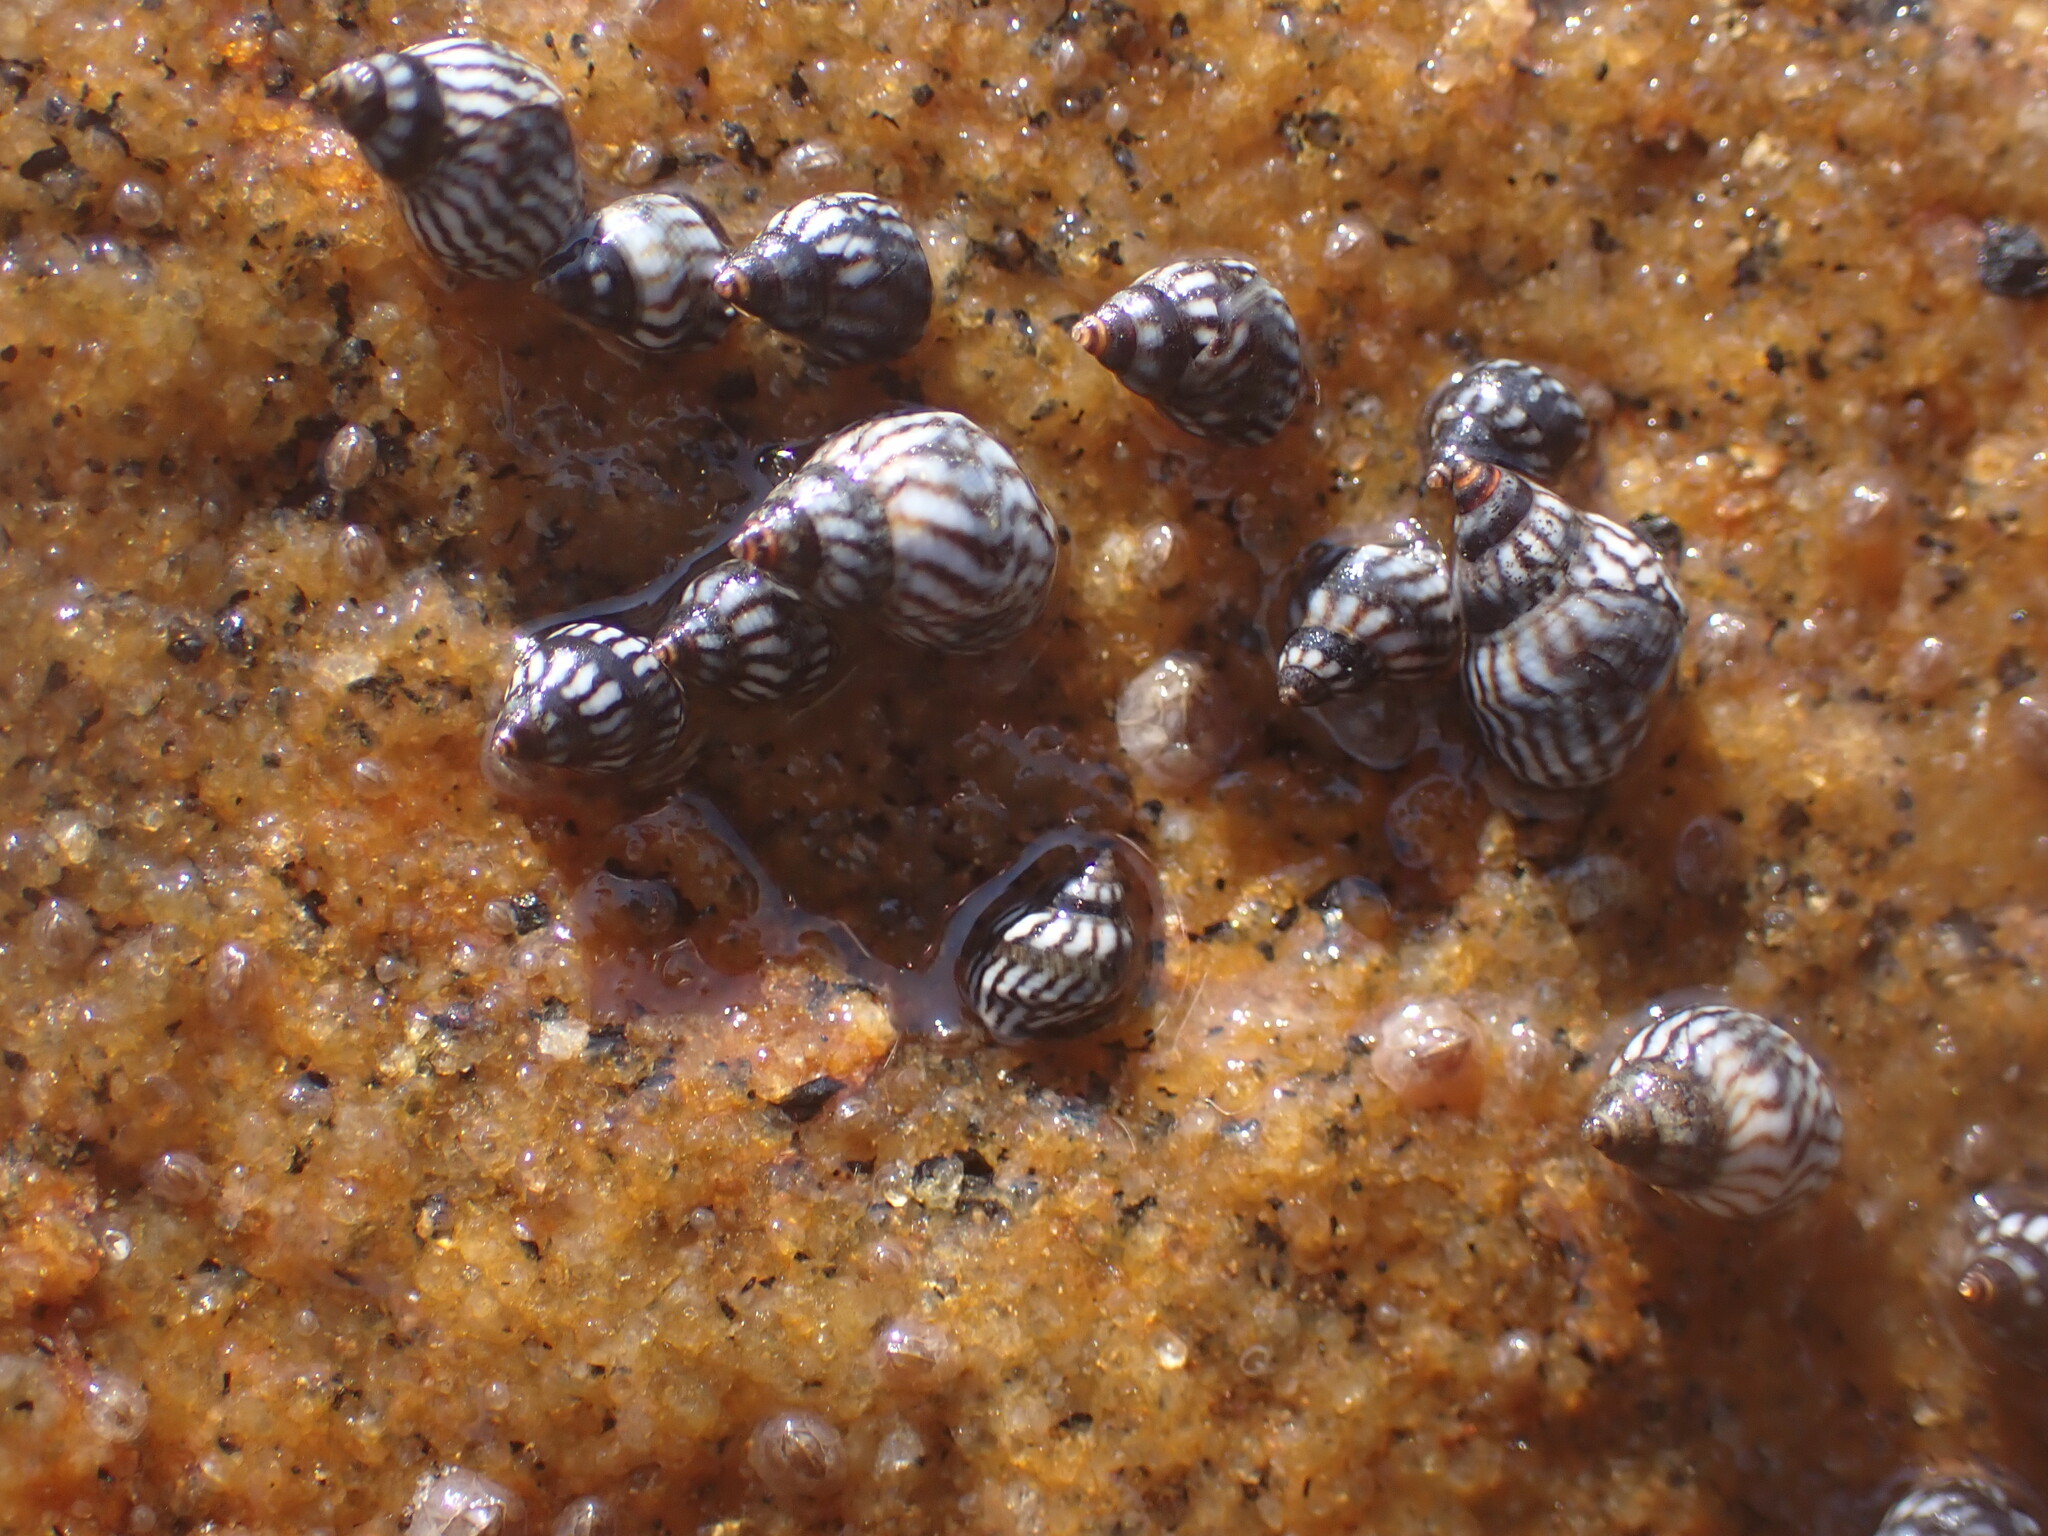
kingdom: Animalia
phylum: Mollusca
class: Gastropoda
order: Littorinimorpha
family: Littorinidae
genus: Echinolittorina
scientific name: Echinolittorina placida
